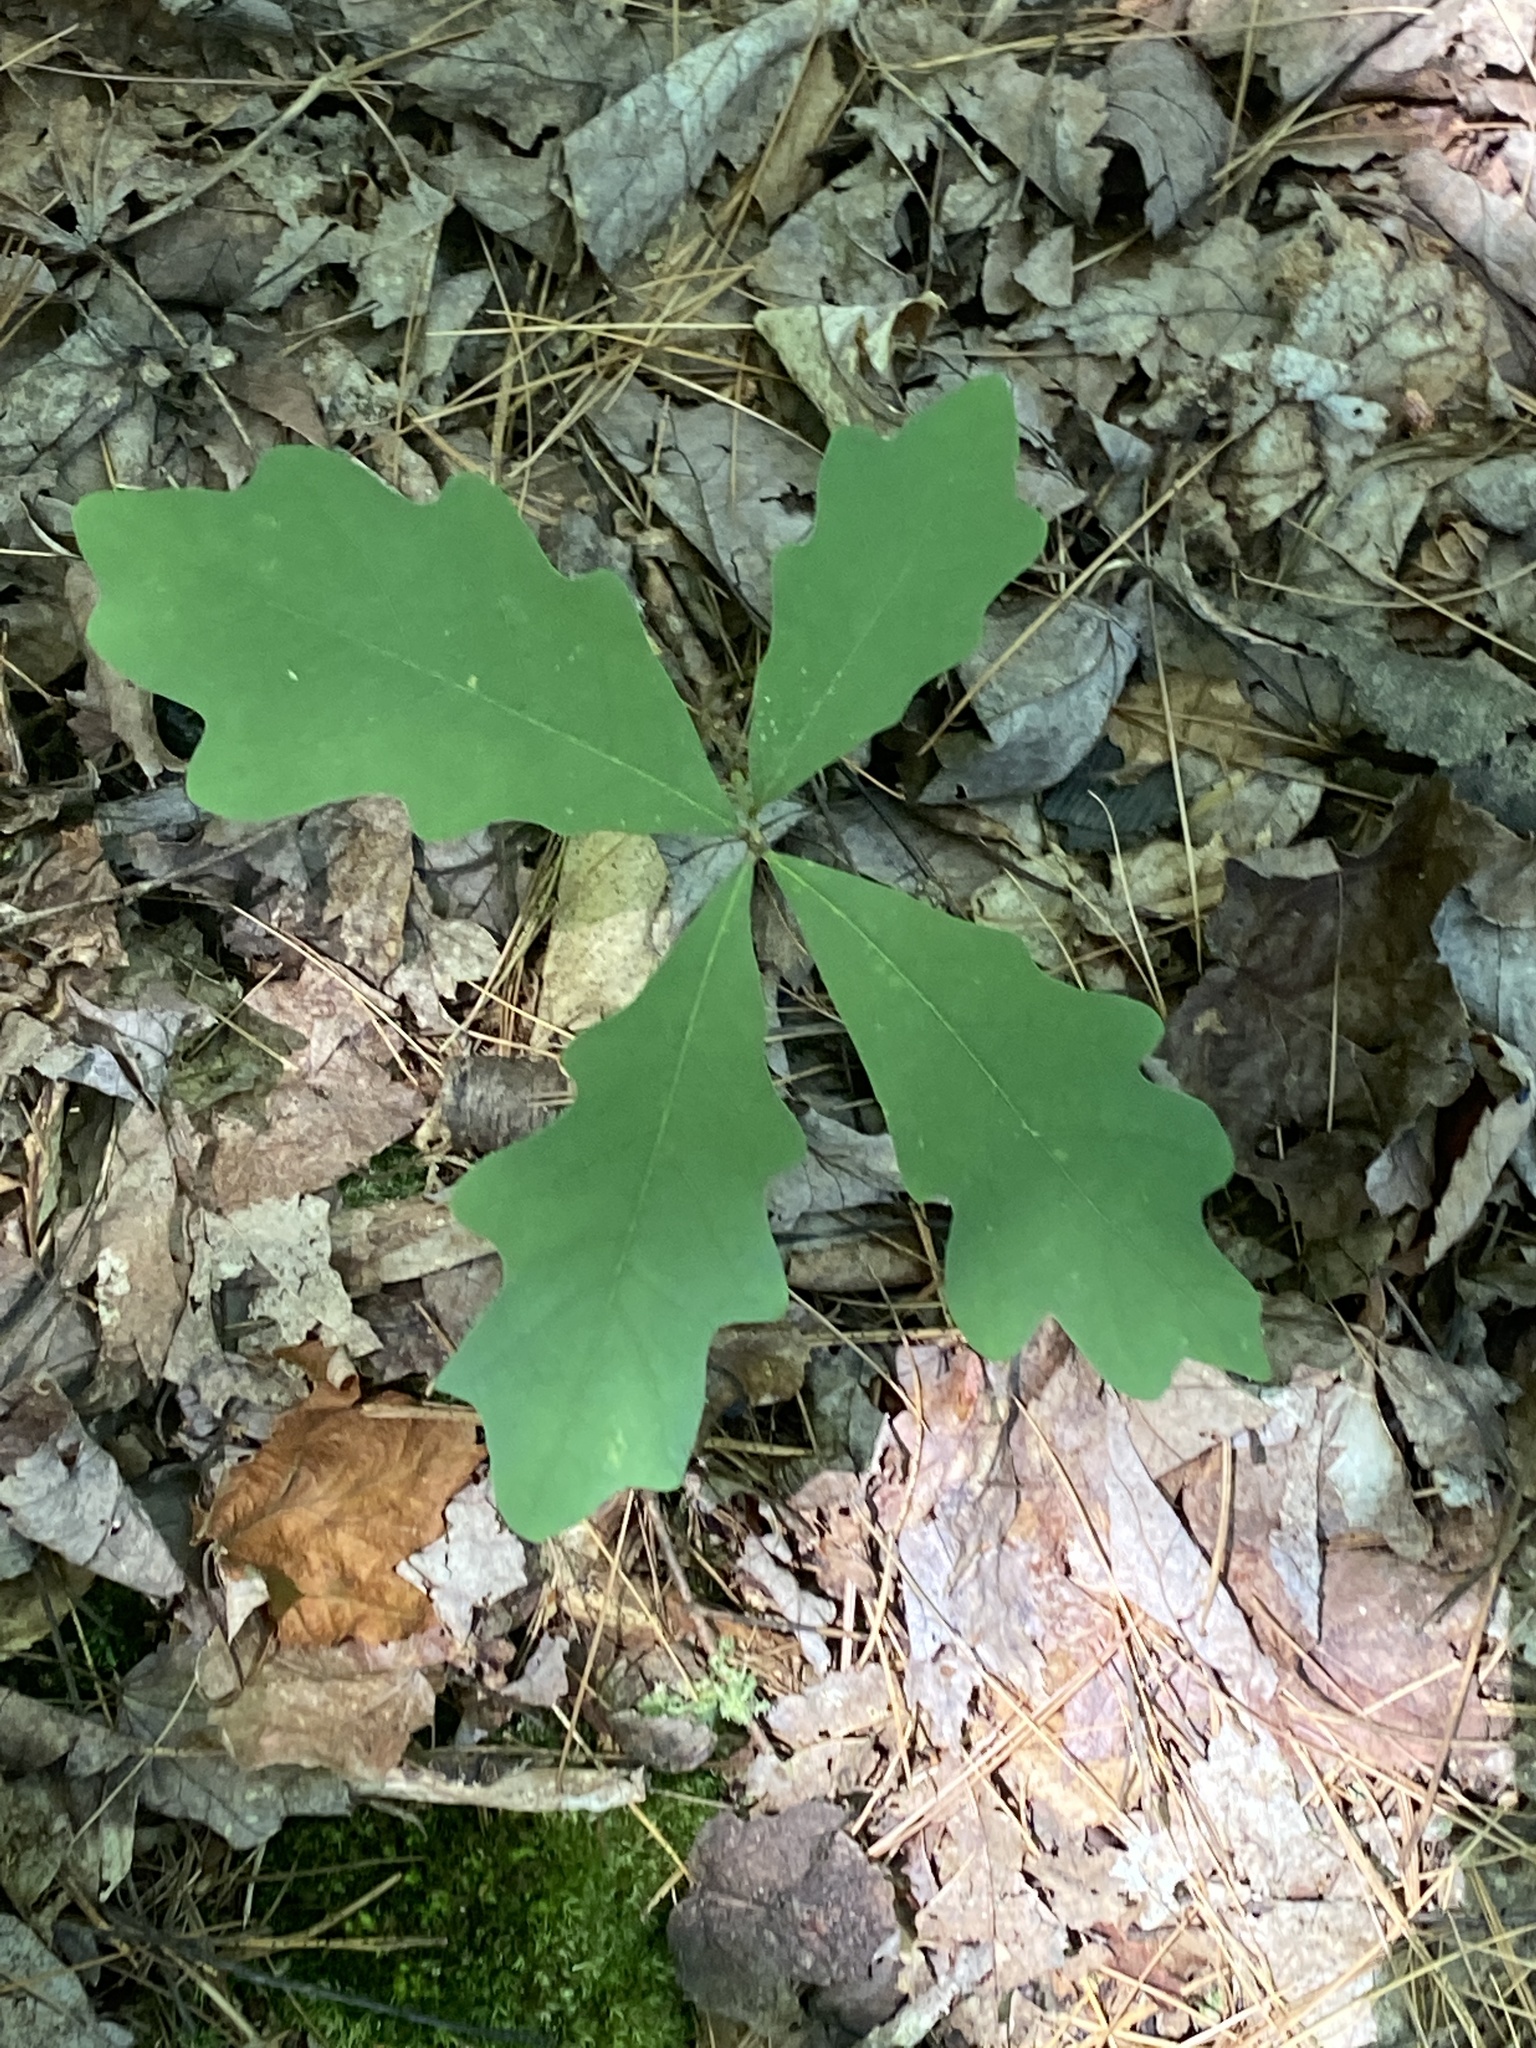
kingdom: Plantae
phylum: Tracheophyta
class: Magnoliopsida
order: Fagales
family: Fagaceae
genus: Quercus
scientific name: Quercus alba
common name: White oak
